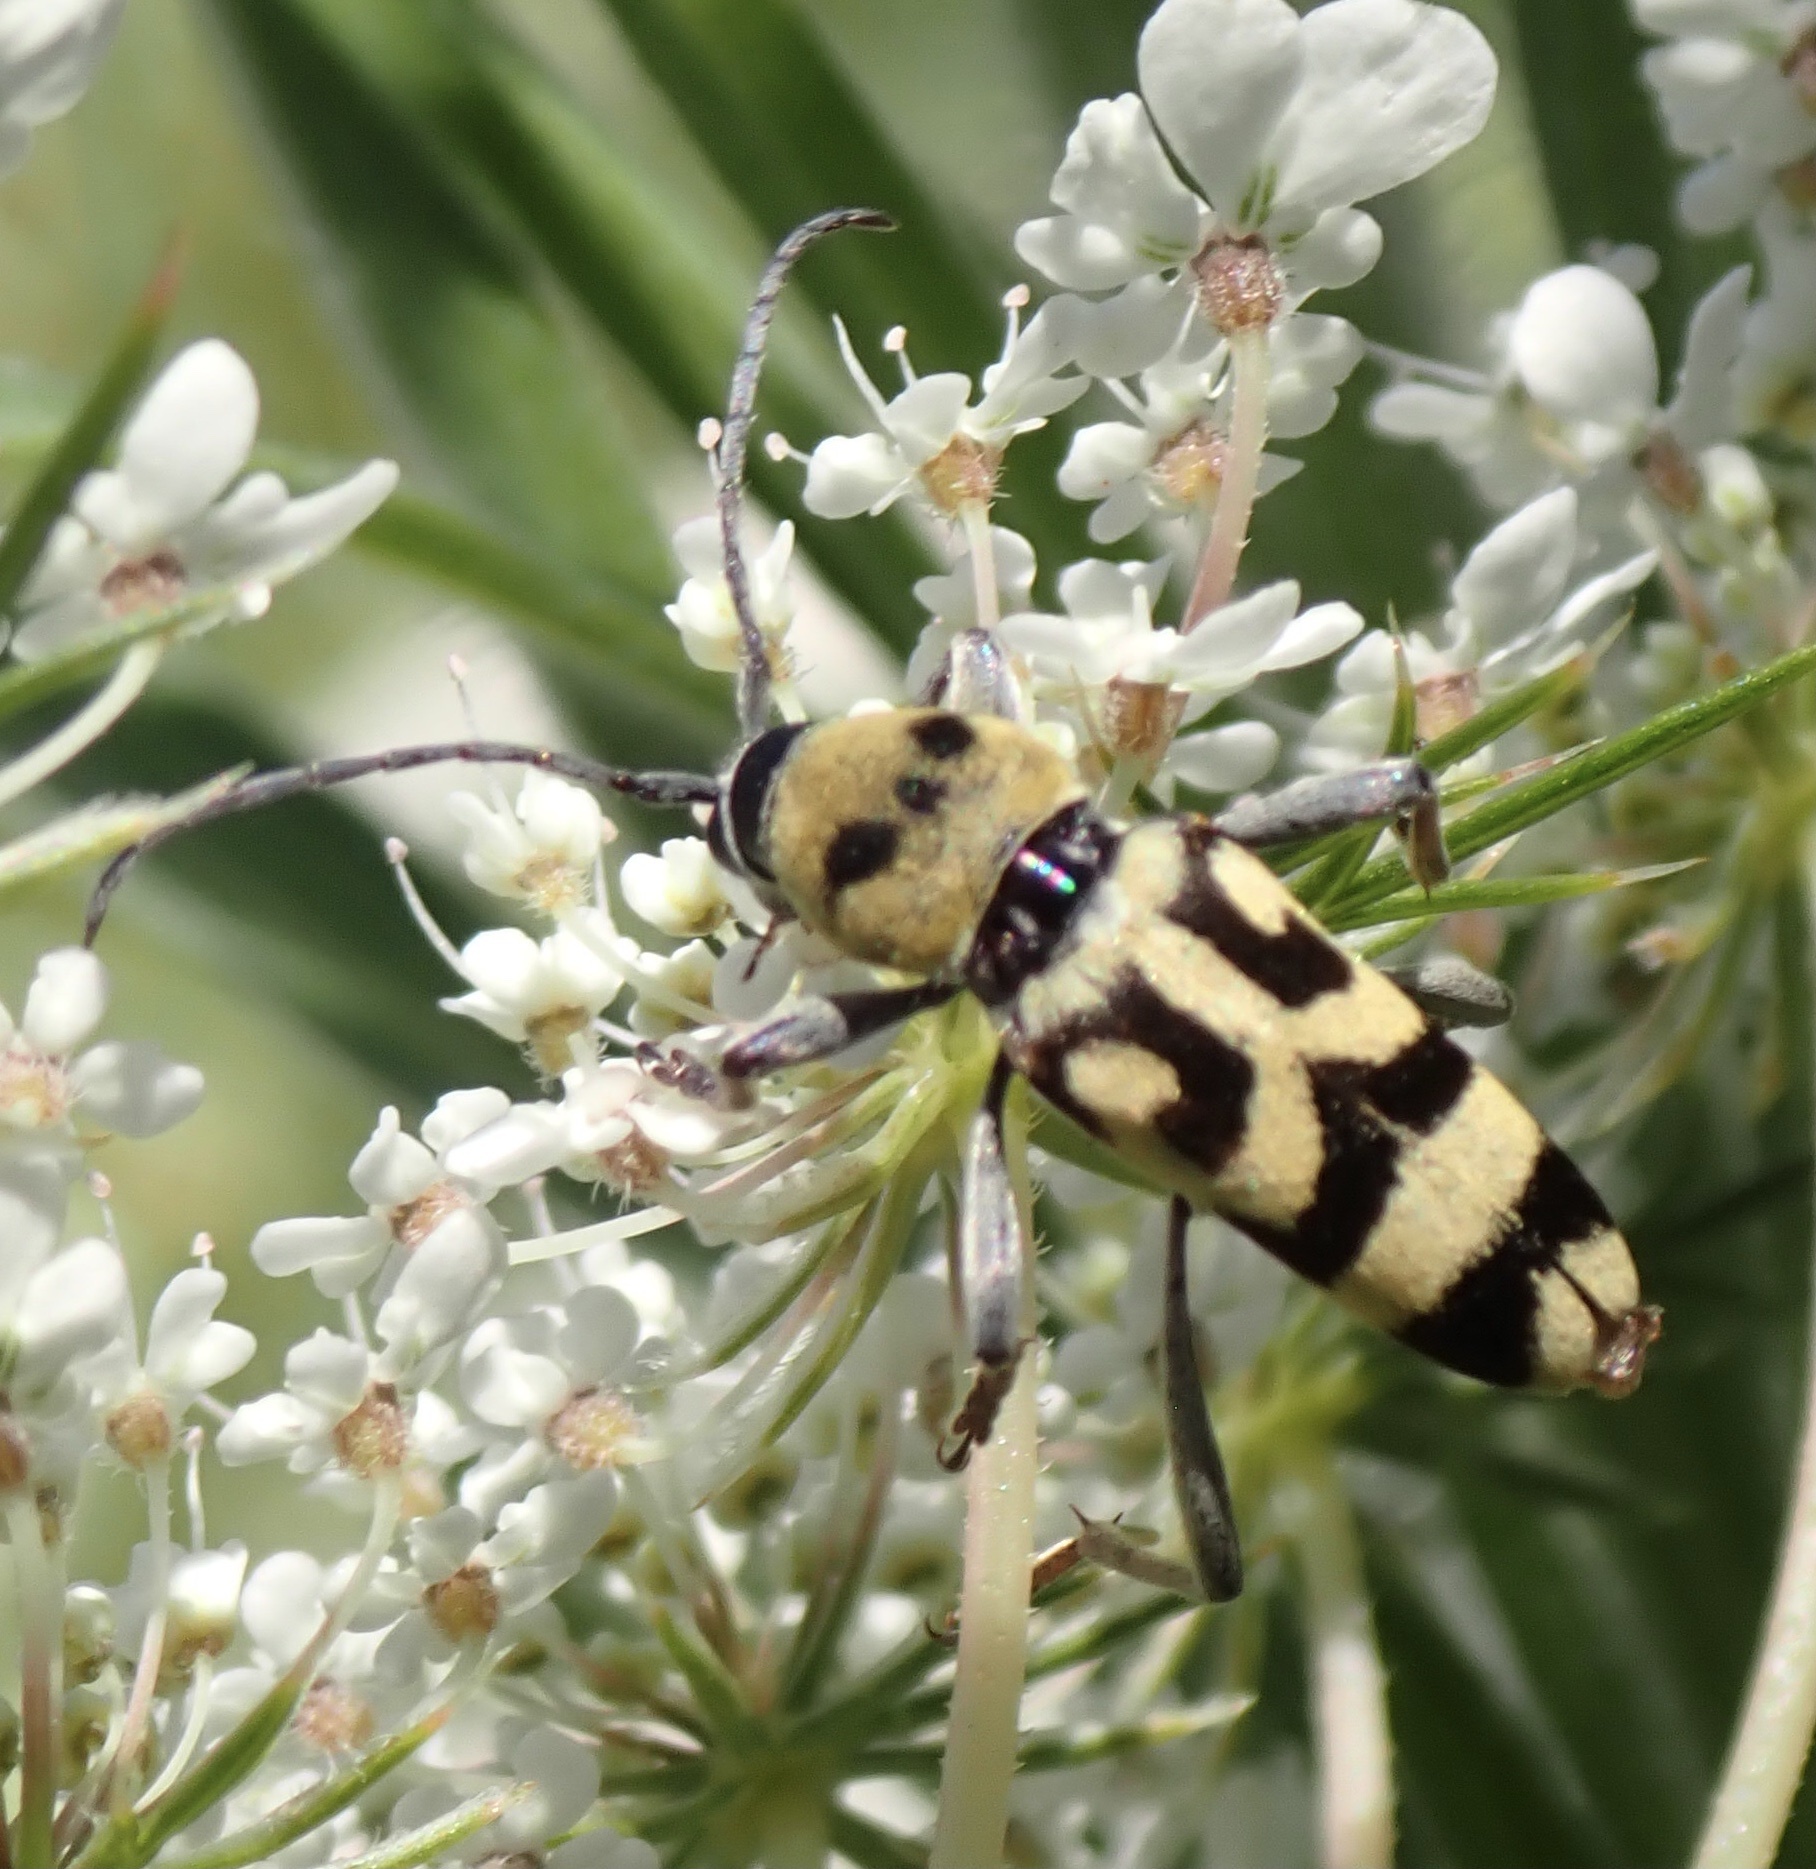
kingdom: Animalia
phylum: Arthropoda
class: Insecta
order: Coleoptera
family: Cerambycidae
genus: Chlorophorus
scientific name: Chlorophorus varius
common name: Grape wood borer
